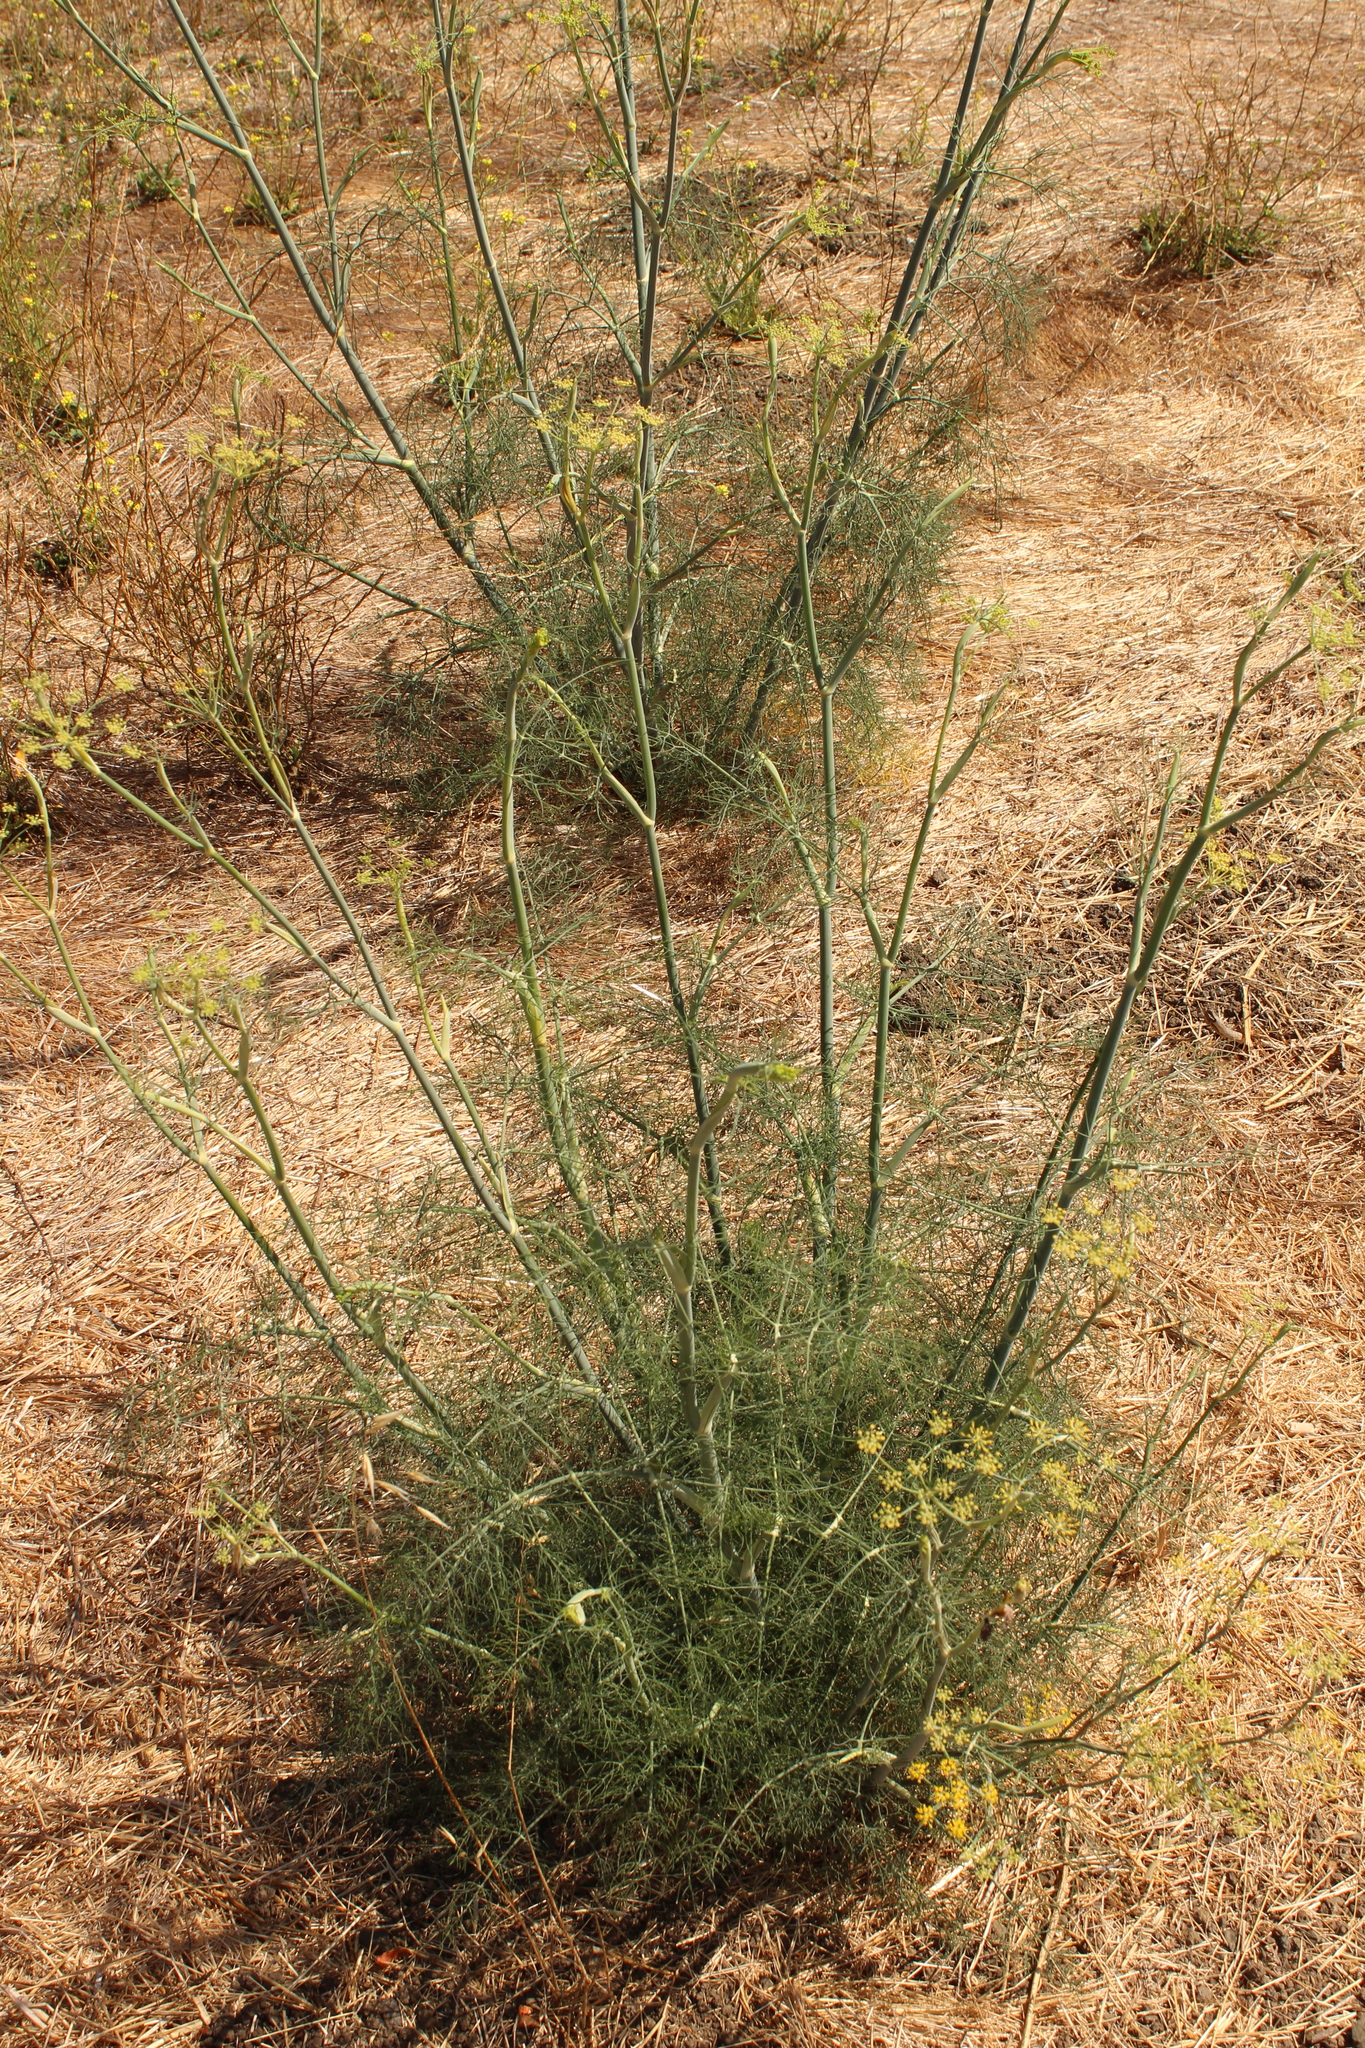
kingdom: Plantae
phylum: Tracheophyta
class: Magnoliopsida
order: Apiales
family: Apiaceae
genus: Foeniculum
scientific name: Foeniculum vulgare
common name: Fennel
